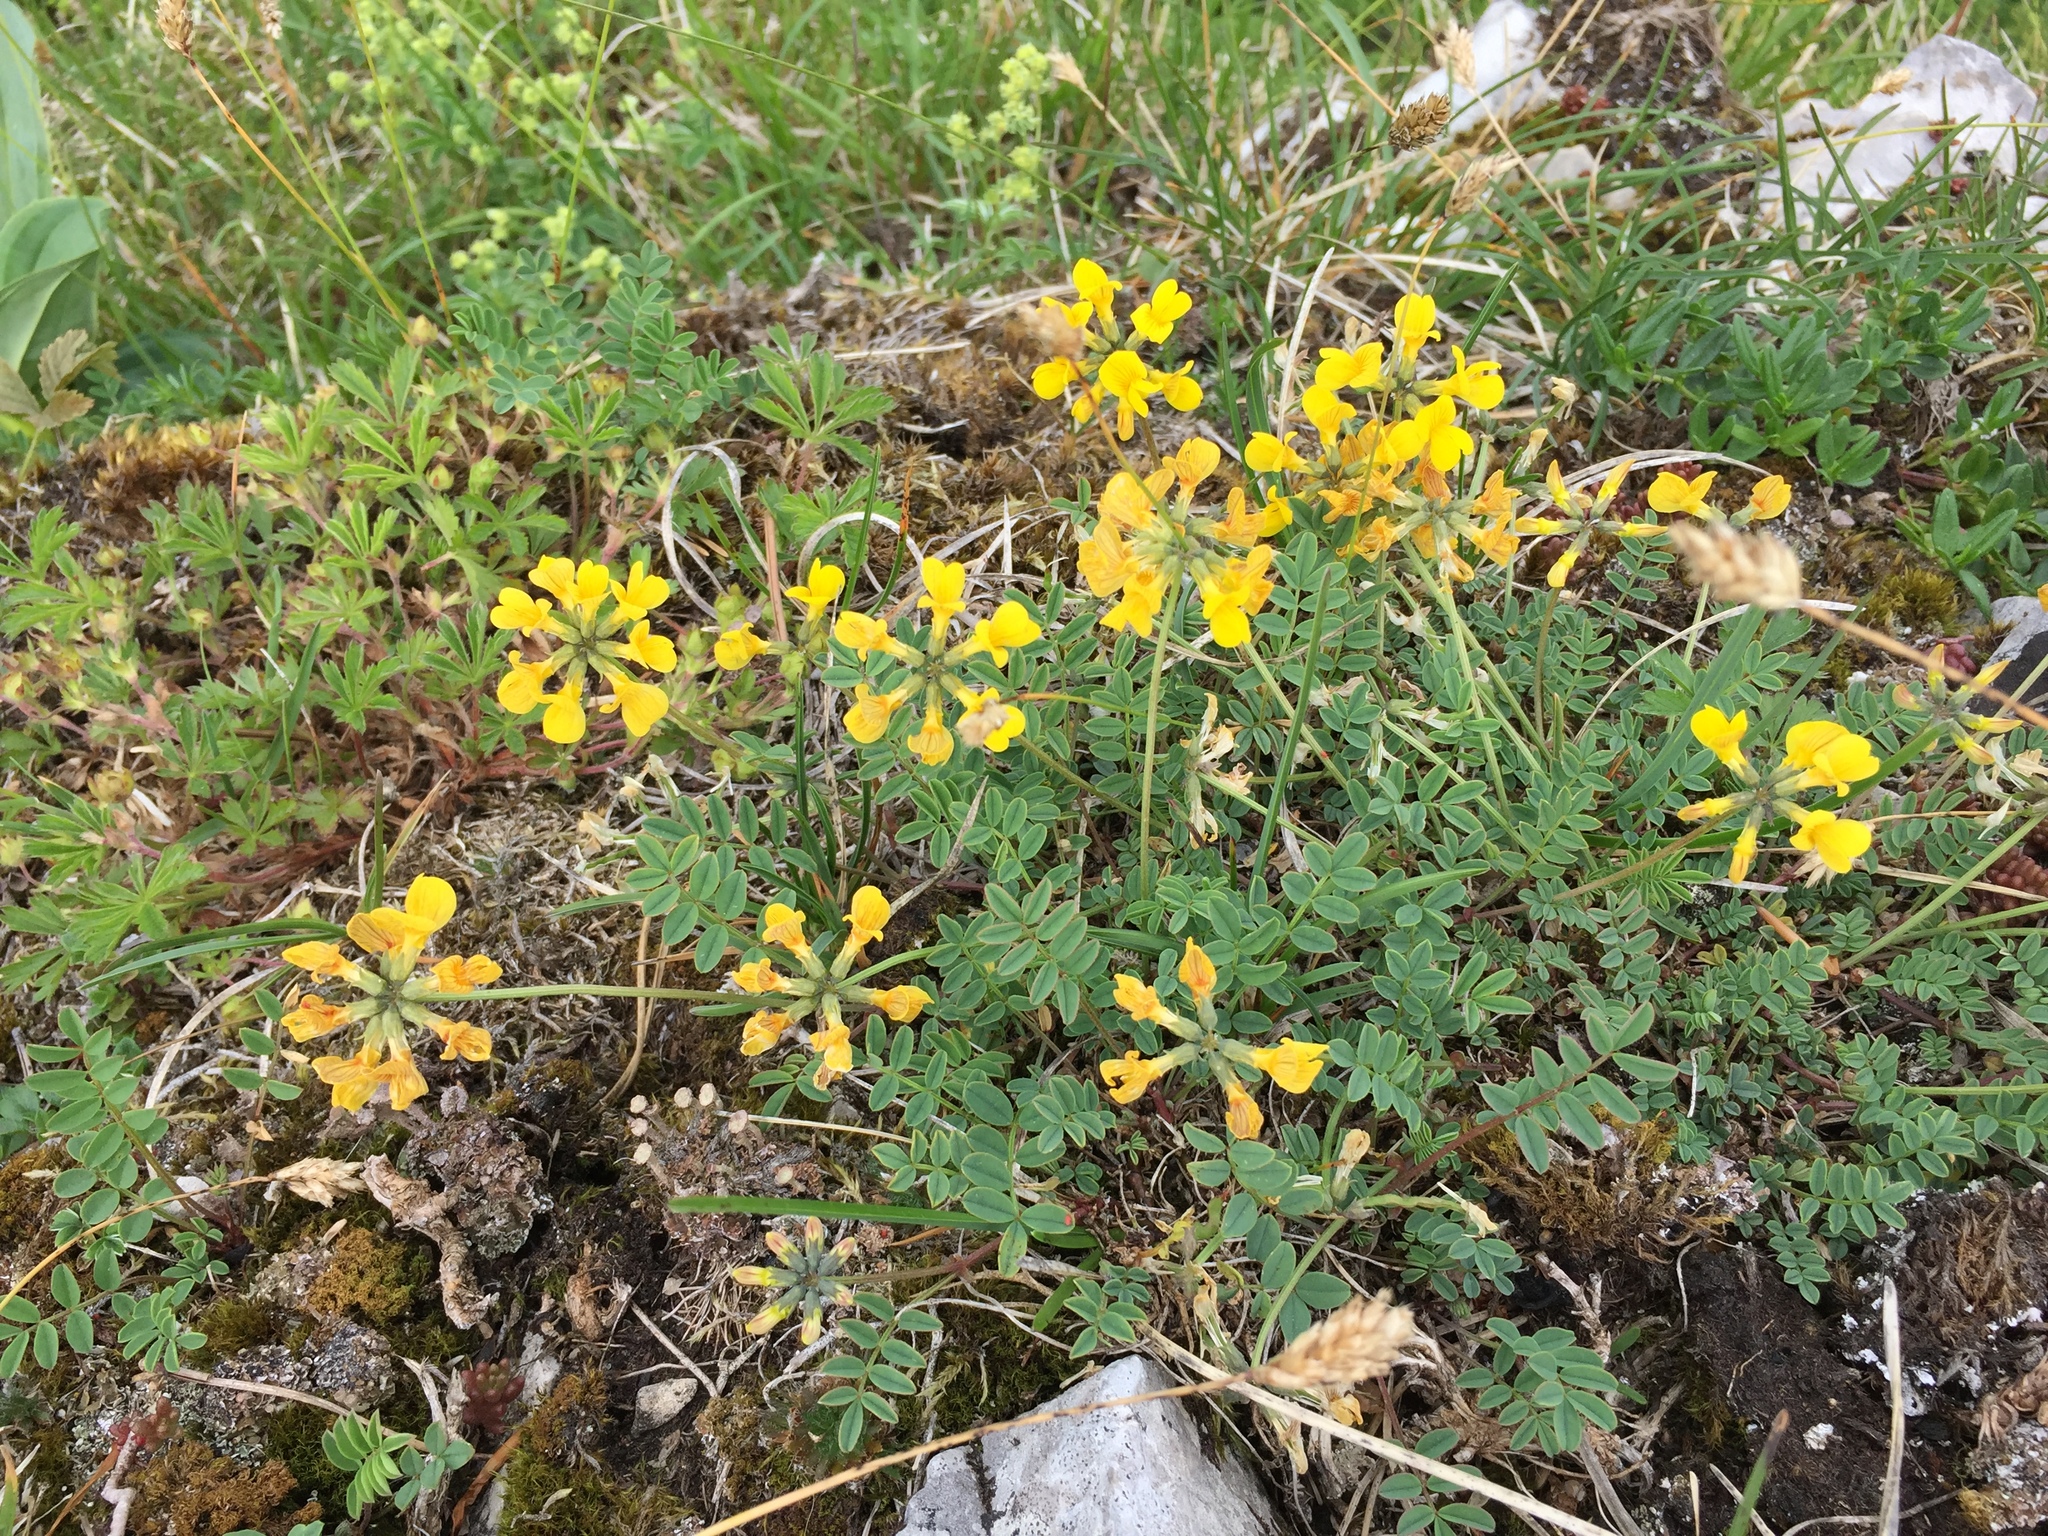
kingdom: Plantae
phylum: Tracheophyta
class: Magnoliopsida
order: Fabales
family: Fabaceae
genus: Hippocrepis
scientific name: Hippocrepis comosa
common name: Horseshoe vetch
